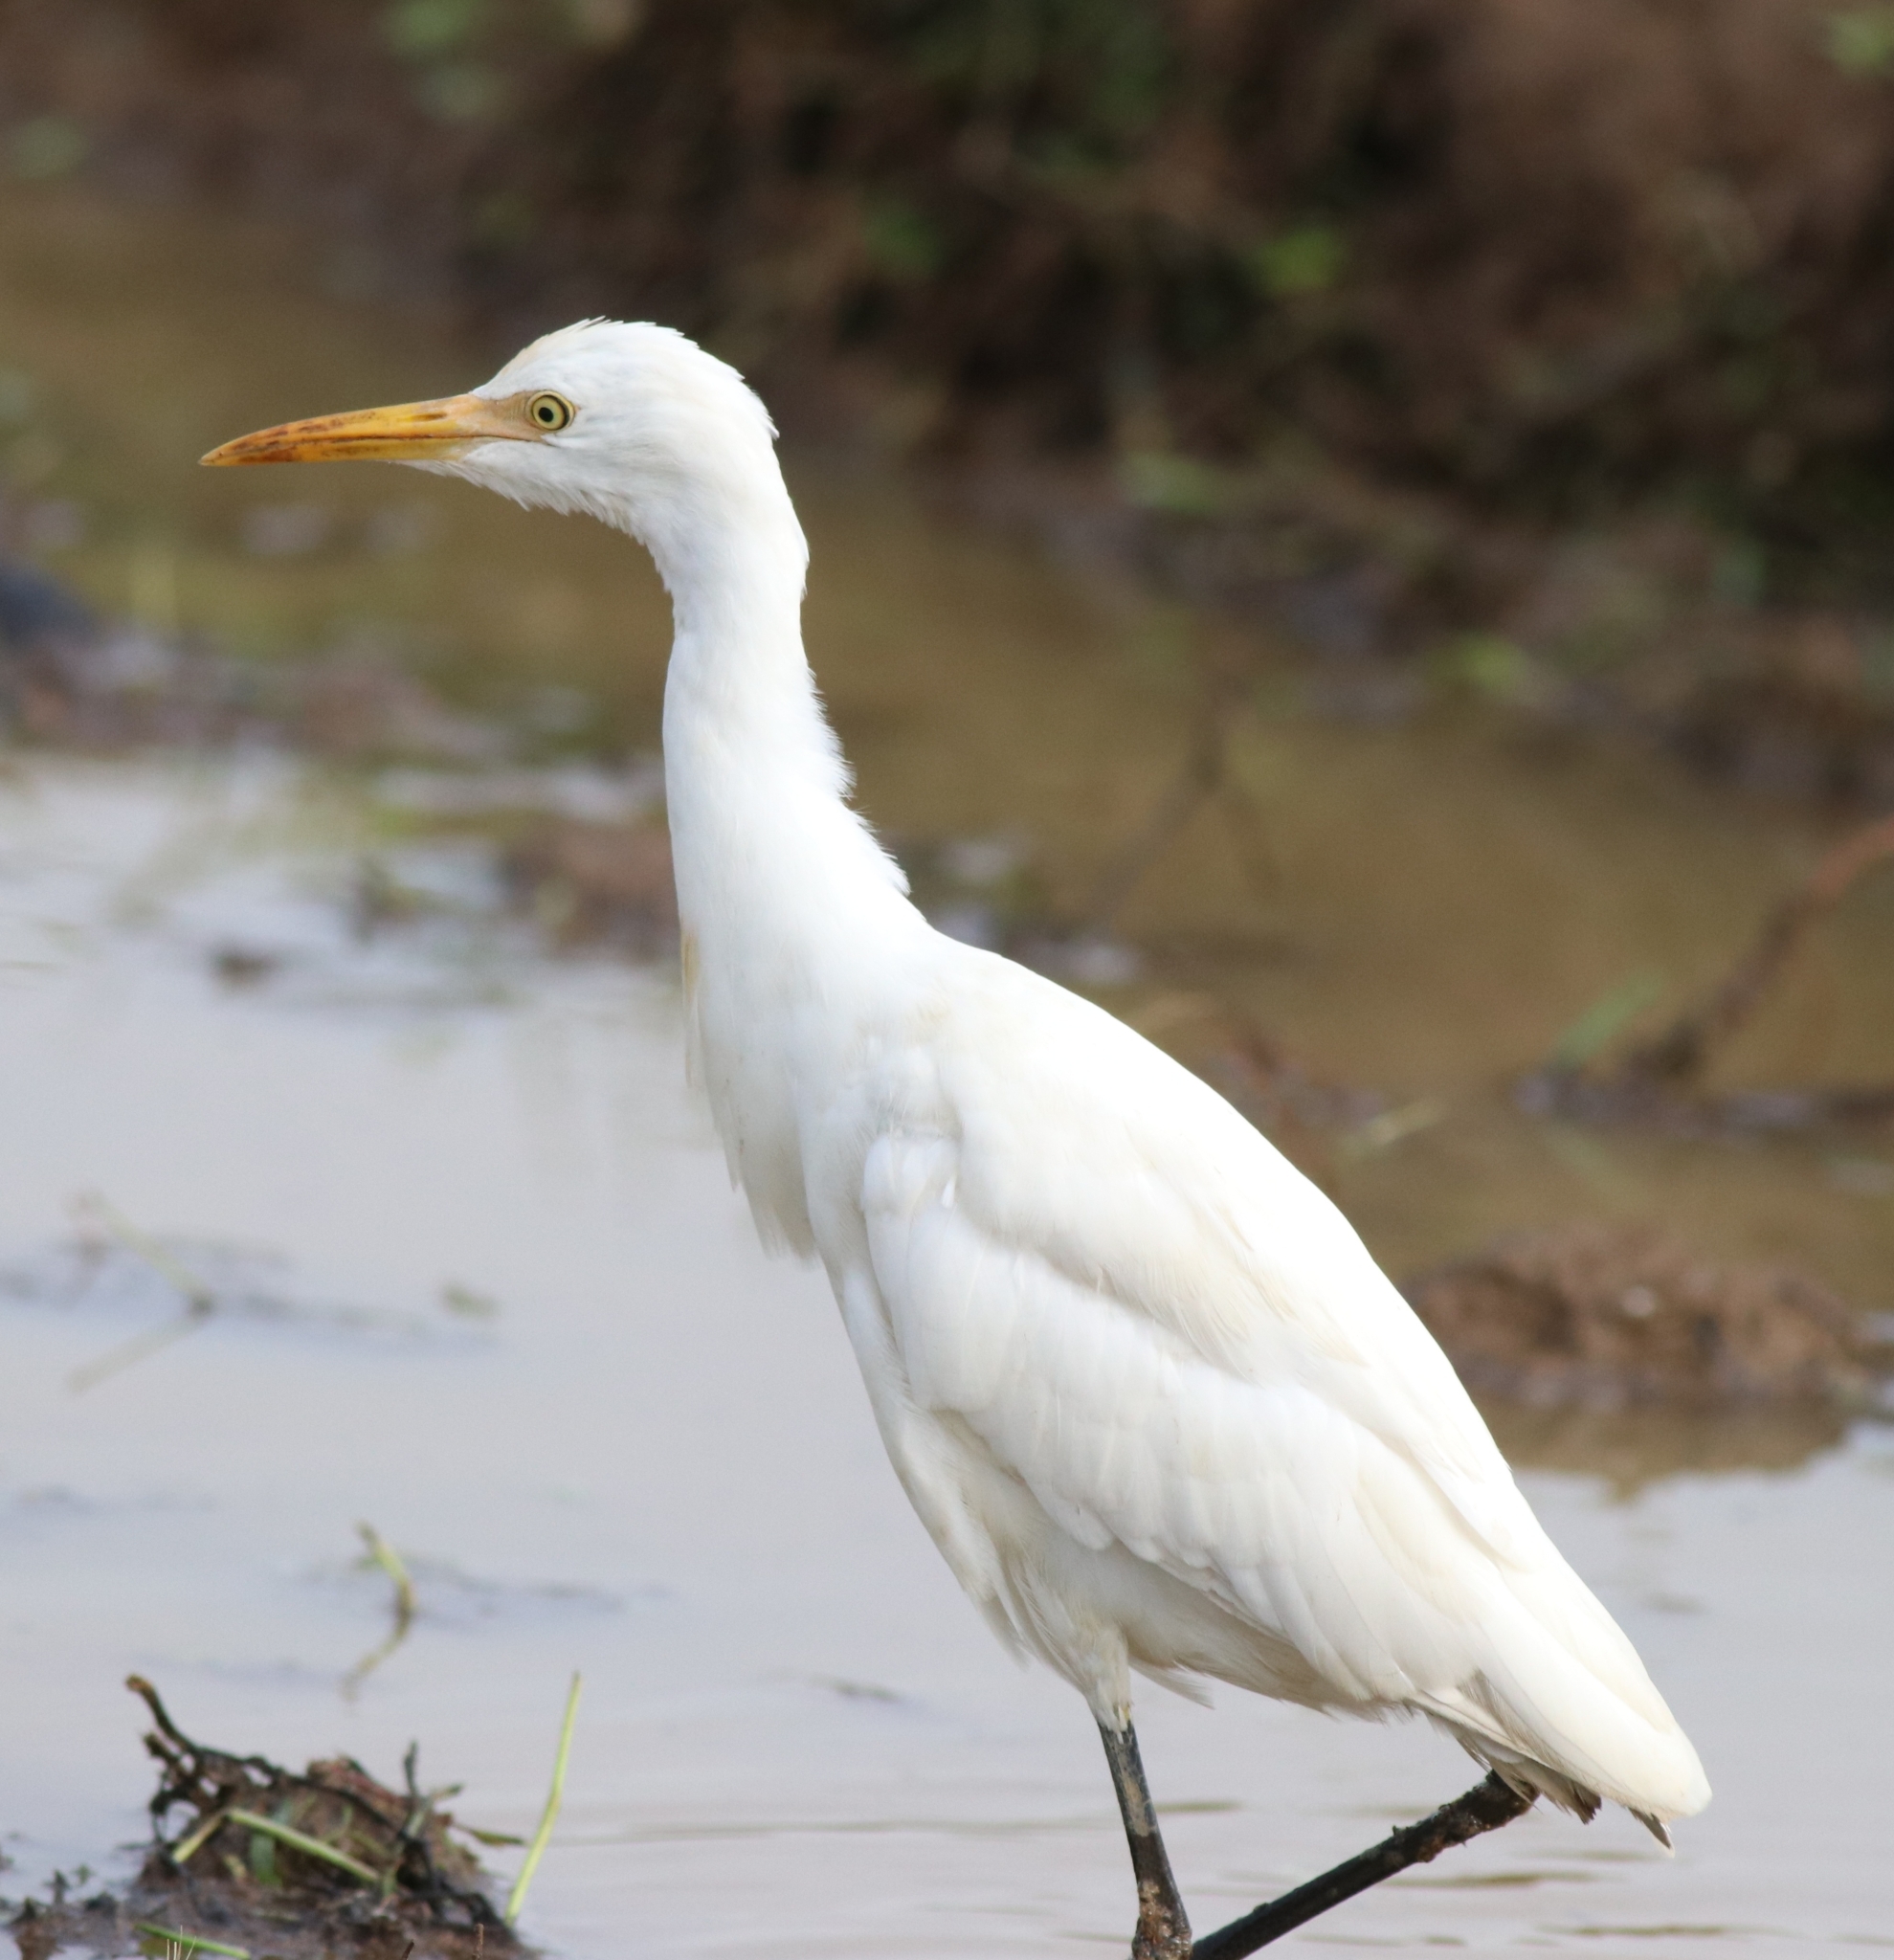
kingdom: Animalia
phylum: Chordata
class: Aves
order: Pelecaniformes
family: Ardeidae
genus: Bubulcus
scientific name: Bubulcus coromandus
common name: Eastern cattle egret
